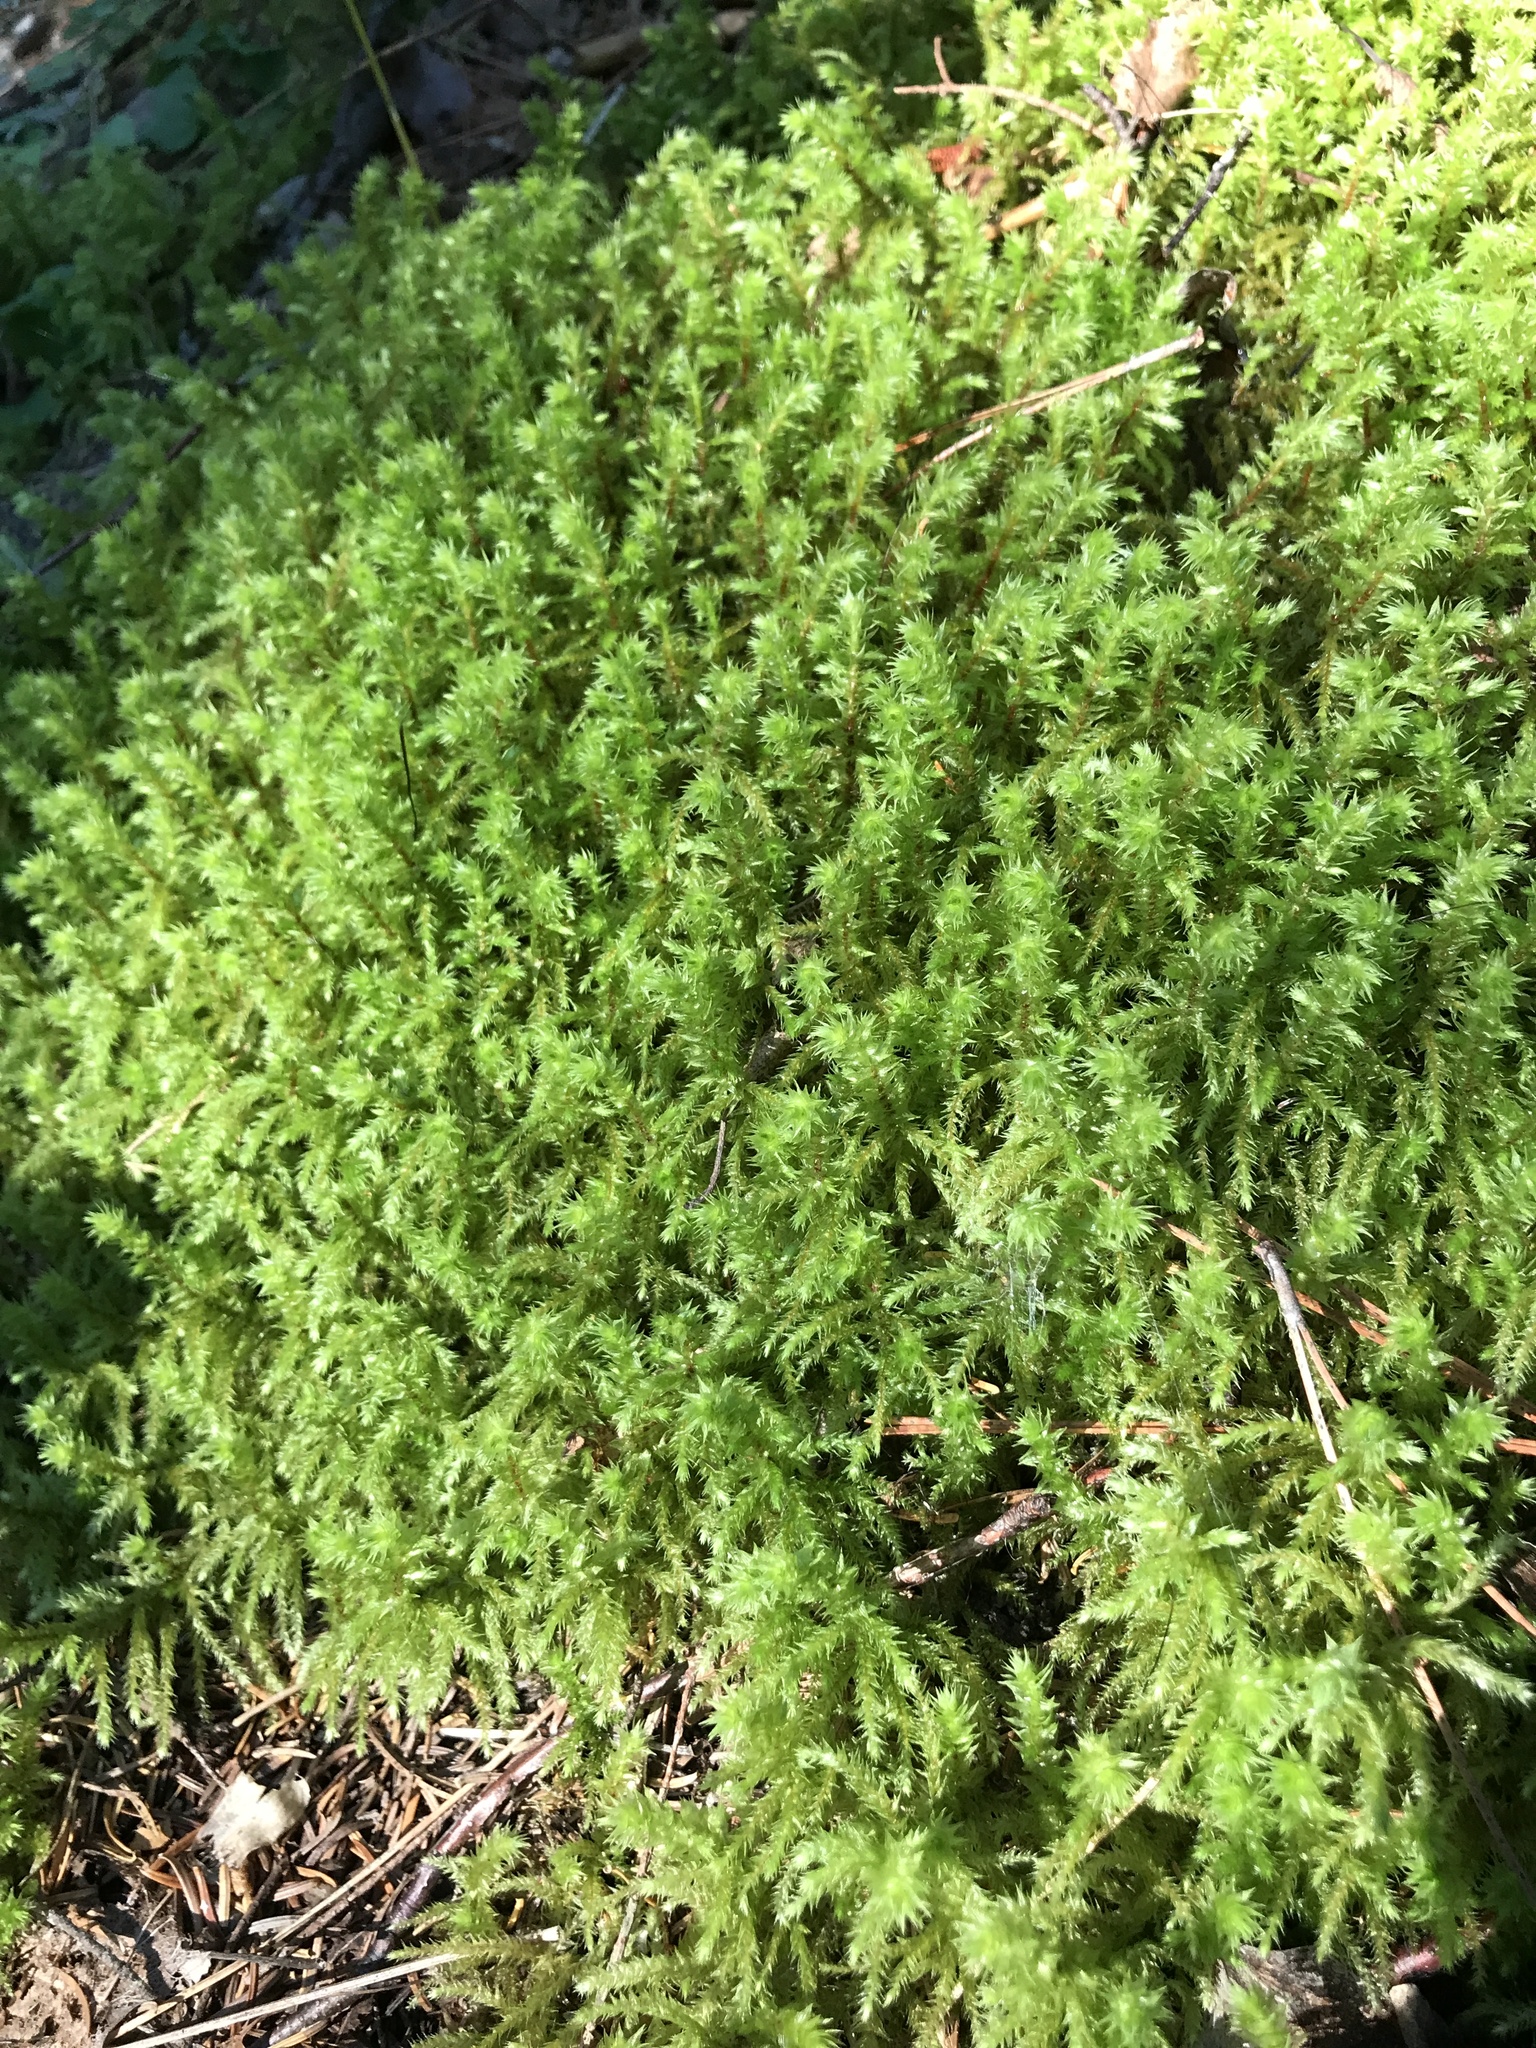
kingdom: Plantae
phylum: Bryophyta
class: Bryopsida
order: Hypnales
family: Hylocomiaceae
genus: Hylocomiadelphus
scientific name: Hylocomiadelphus triquetrus
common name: Rough goose neck moss
